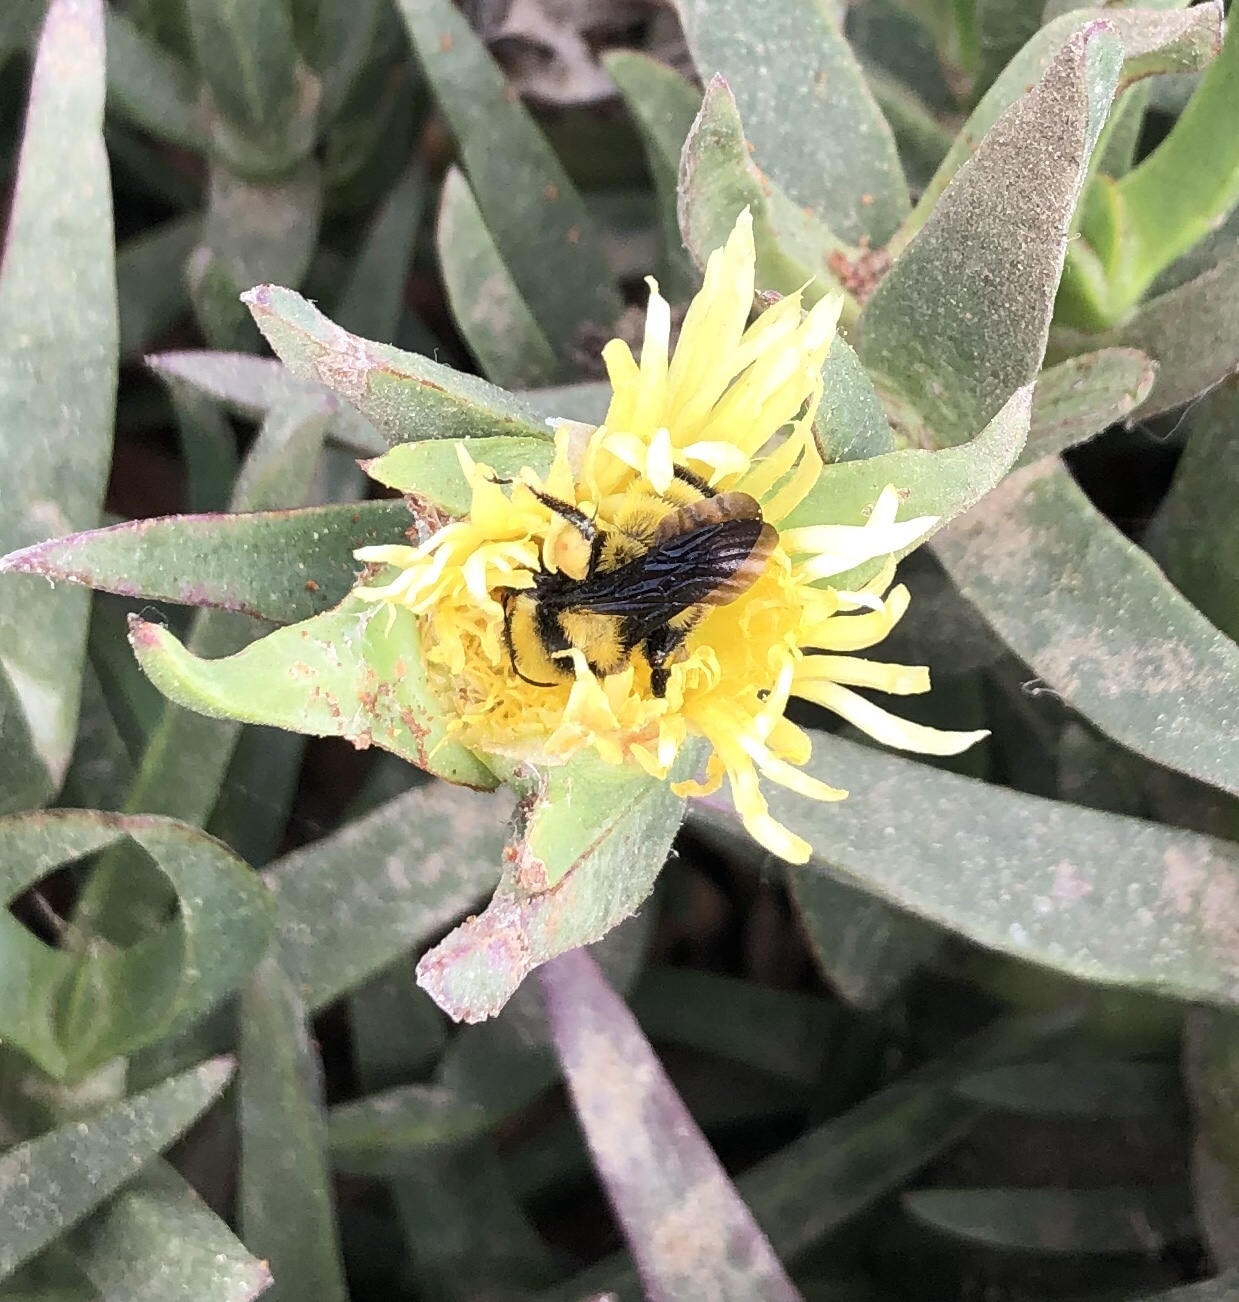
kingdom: Animalia
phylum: Arthropoda
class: Insecta
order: Hymenoptera
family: Apidae
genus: Bombus
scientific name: Bombus sonorus
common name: Sonoran bumble bee
